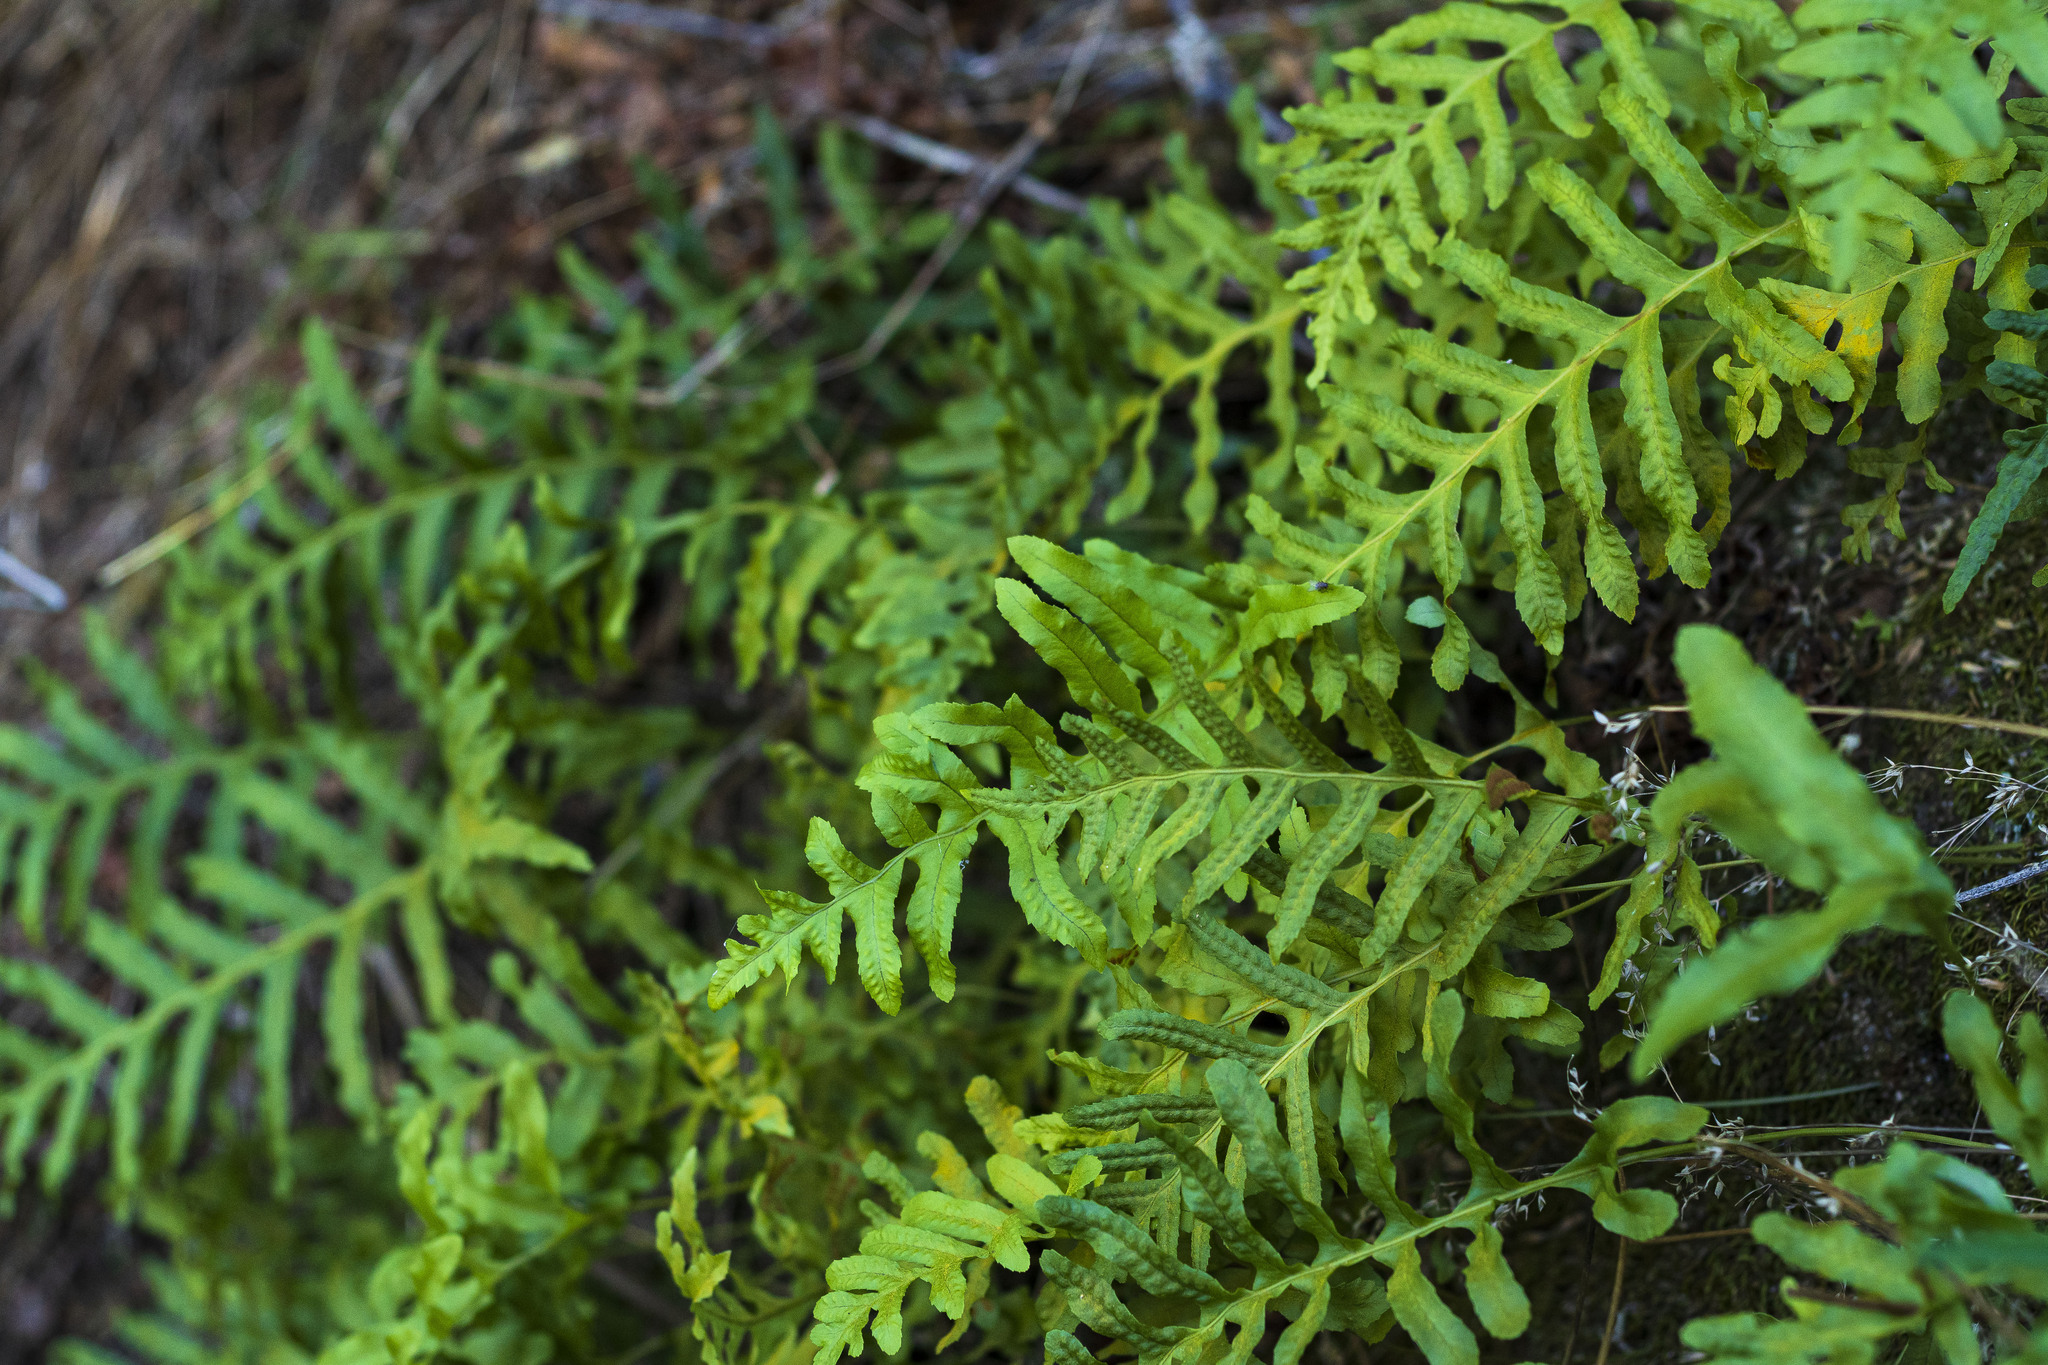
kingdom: Plantae
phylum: Tracheophyta
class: Polypodiopsida
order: Polypodiales
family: Polypodiaceae
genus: Polypodium
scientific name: Polypodium californicum
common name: California polypody
